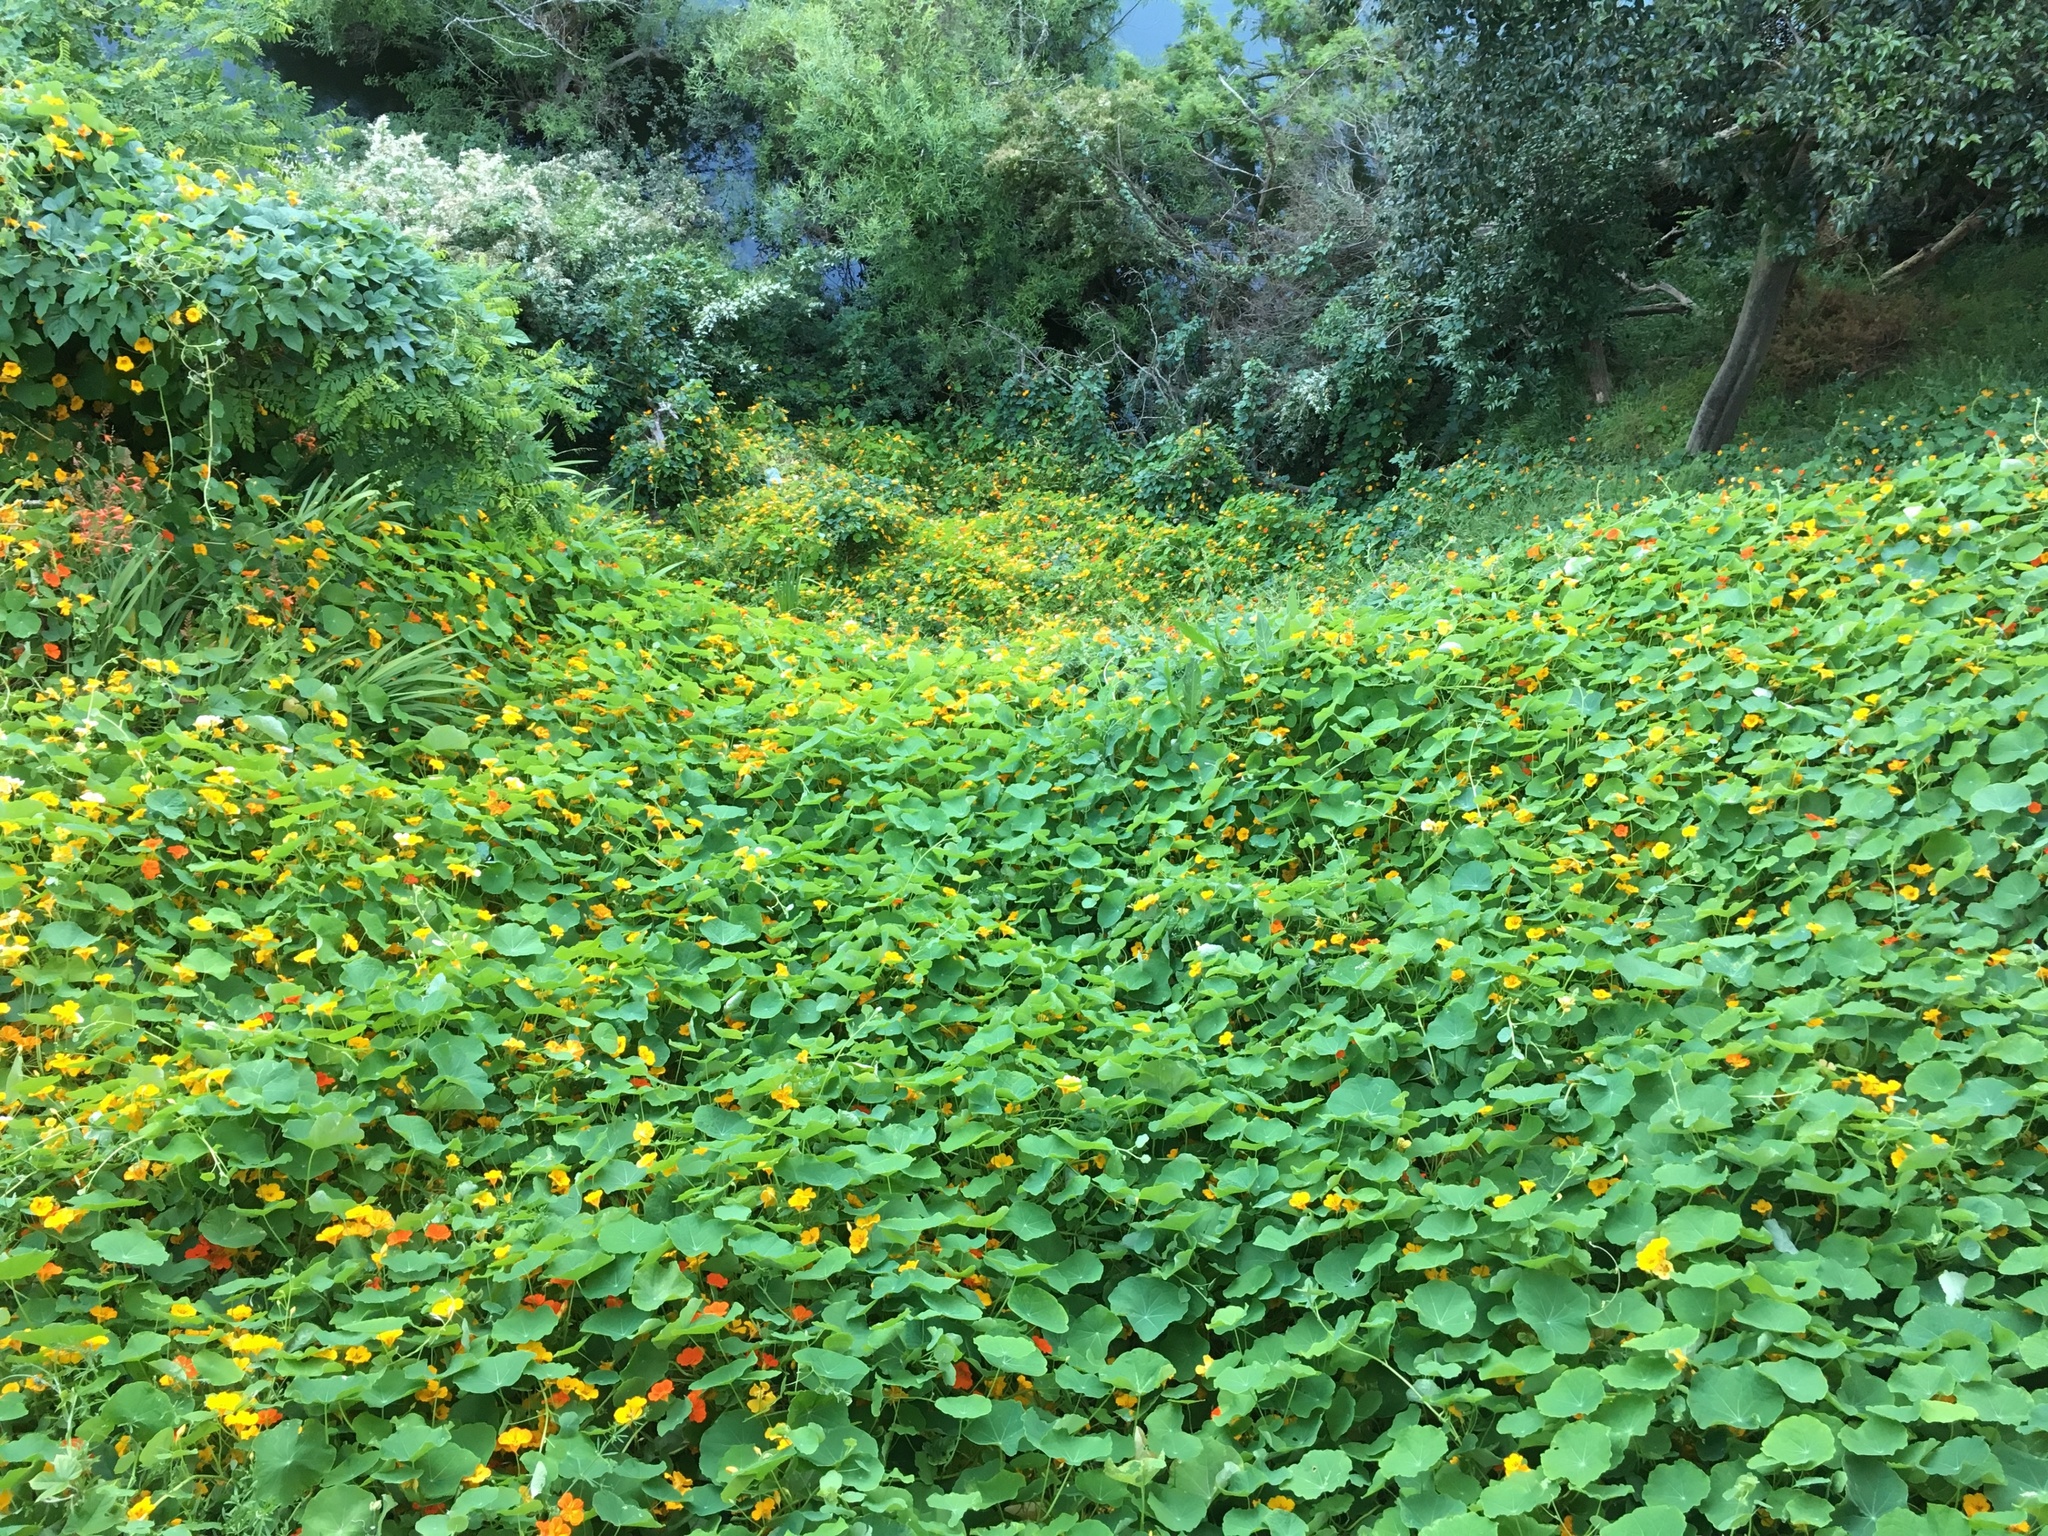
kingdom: Plantae
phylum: Tracheophyta
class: Magnoliopsida
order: Brassicales
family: Tropaeolaceae
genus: Tropaeolum
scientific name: Tropaeolum majus
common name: Nasturtium
